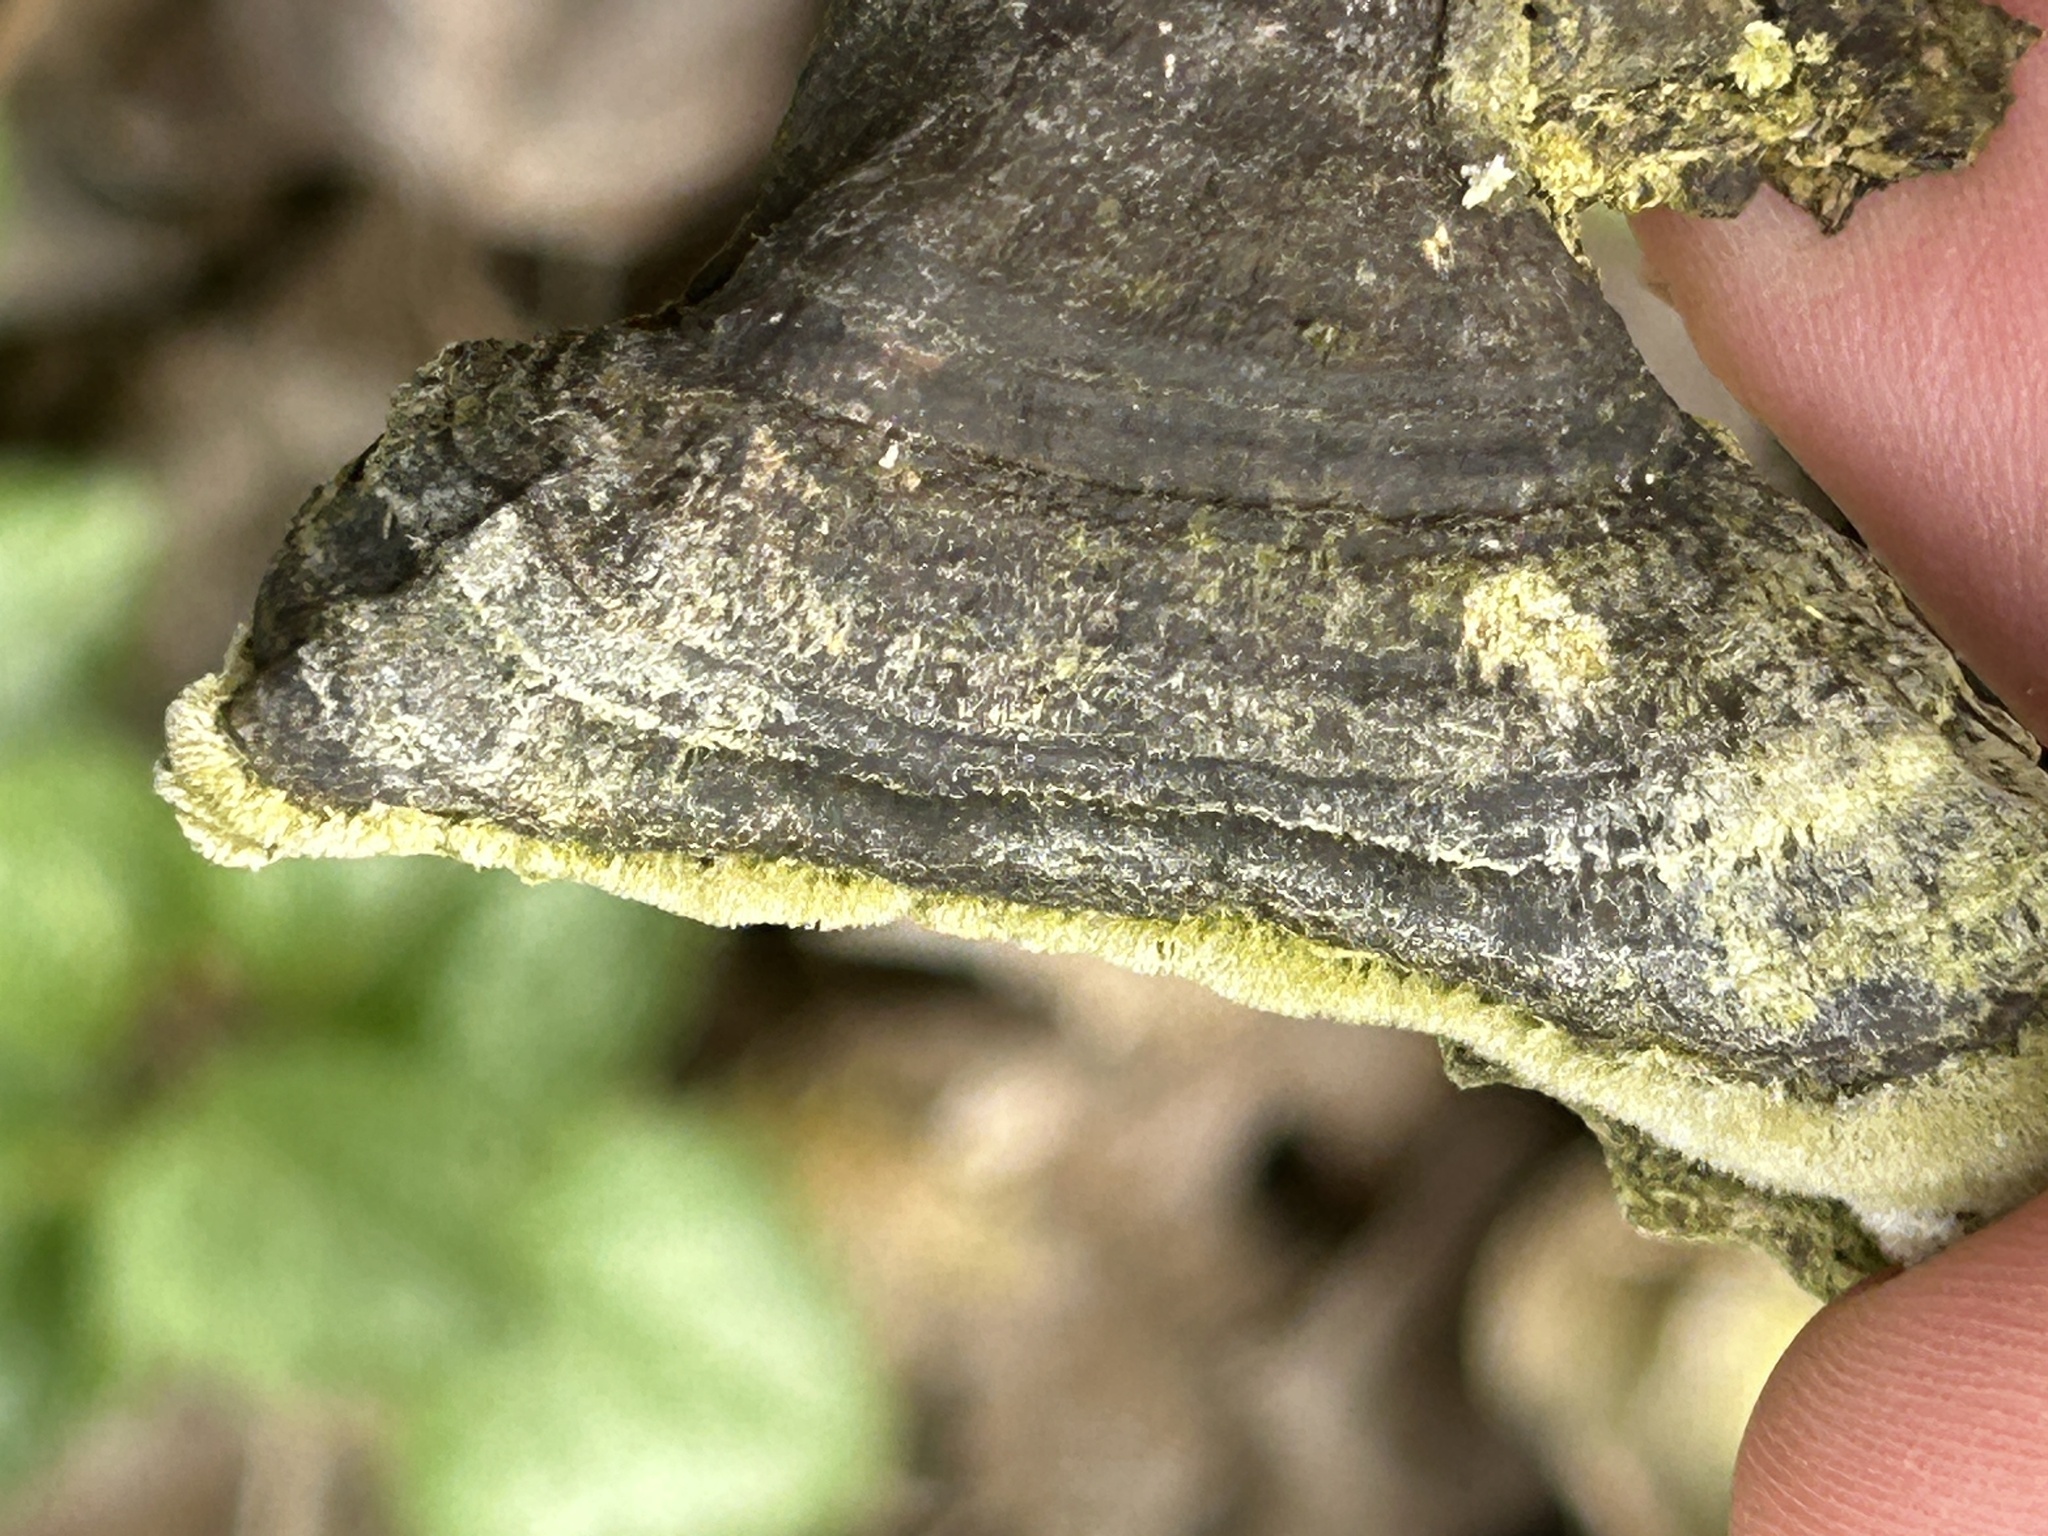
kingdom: Fungi
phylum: Basidiomycota
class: Agaricomycetes
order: Polyporales
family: Polyporaceae
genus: Trametes
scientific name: Trametes gibbosa
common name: Lumpy bracket
